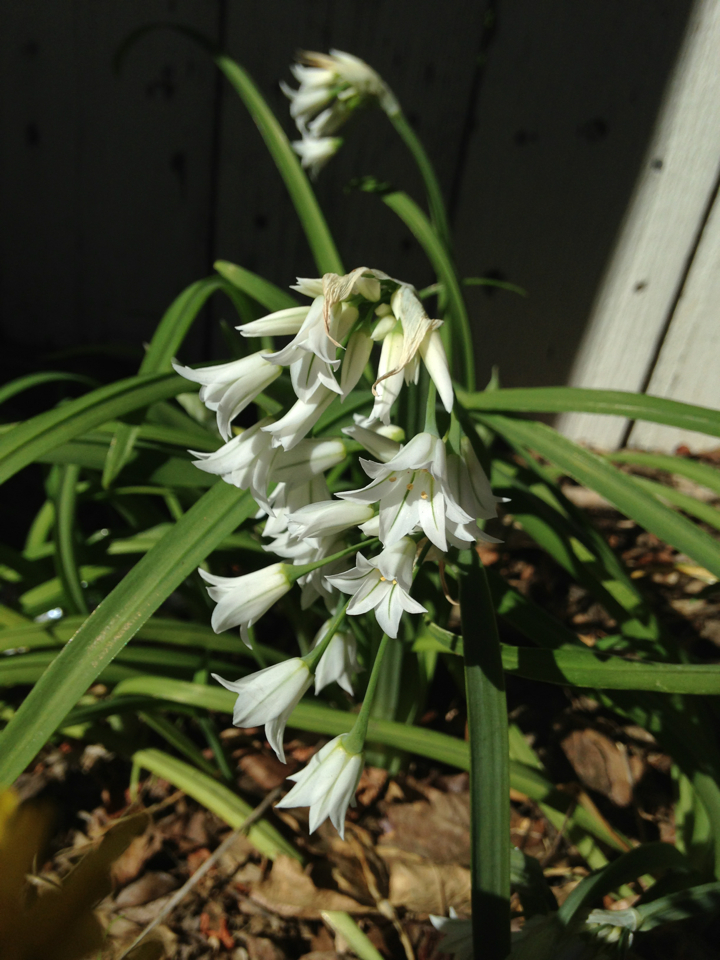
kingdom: Plantae
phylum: Tracheophyta
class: Liliopsida
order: Asparagales
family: Amaryllidaceae
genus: Allium
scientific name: Allium triquetrum
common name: Three-cornered garlic
